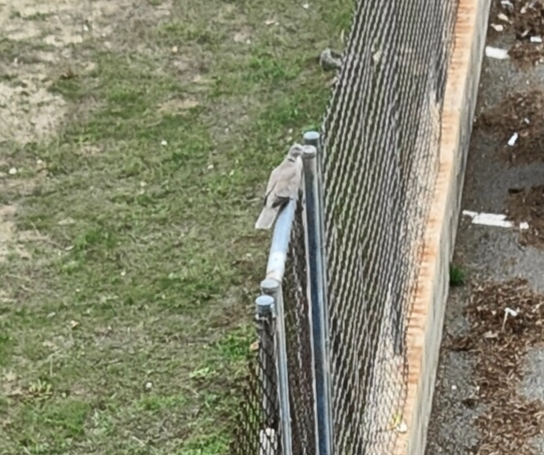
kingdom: Animalia
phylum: Chordata
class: Aves
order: Columbiformes
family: Columbidae
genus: Streptopelia
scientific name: Streptopelia decaocto
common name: Eurasian collared dove
